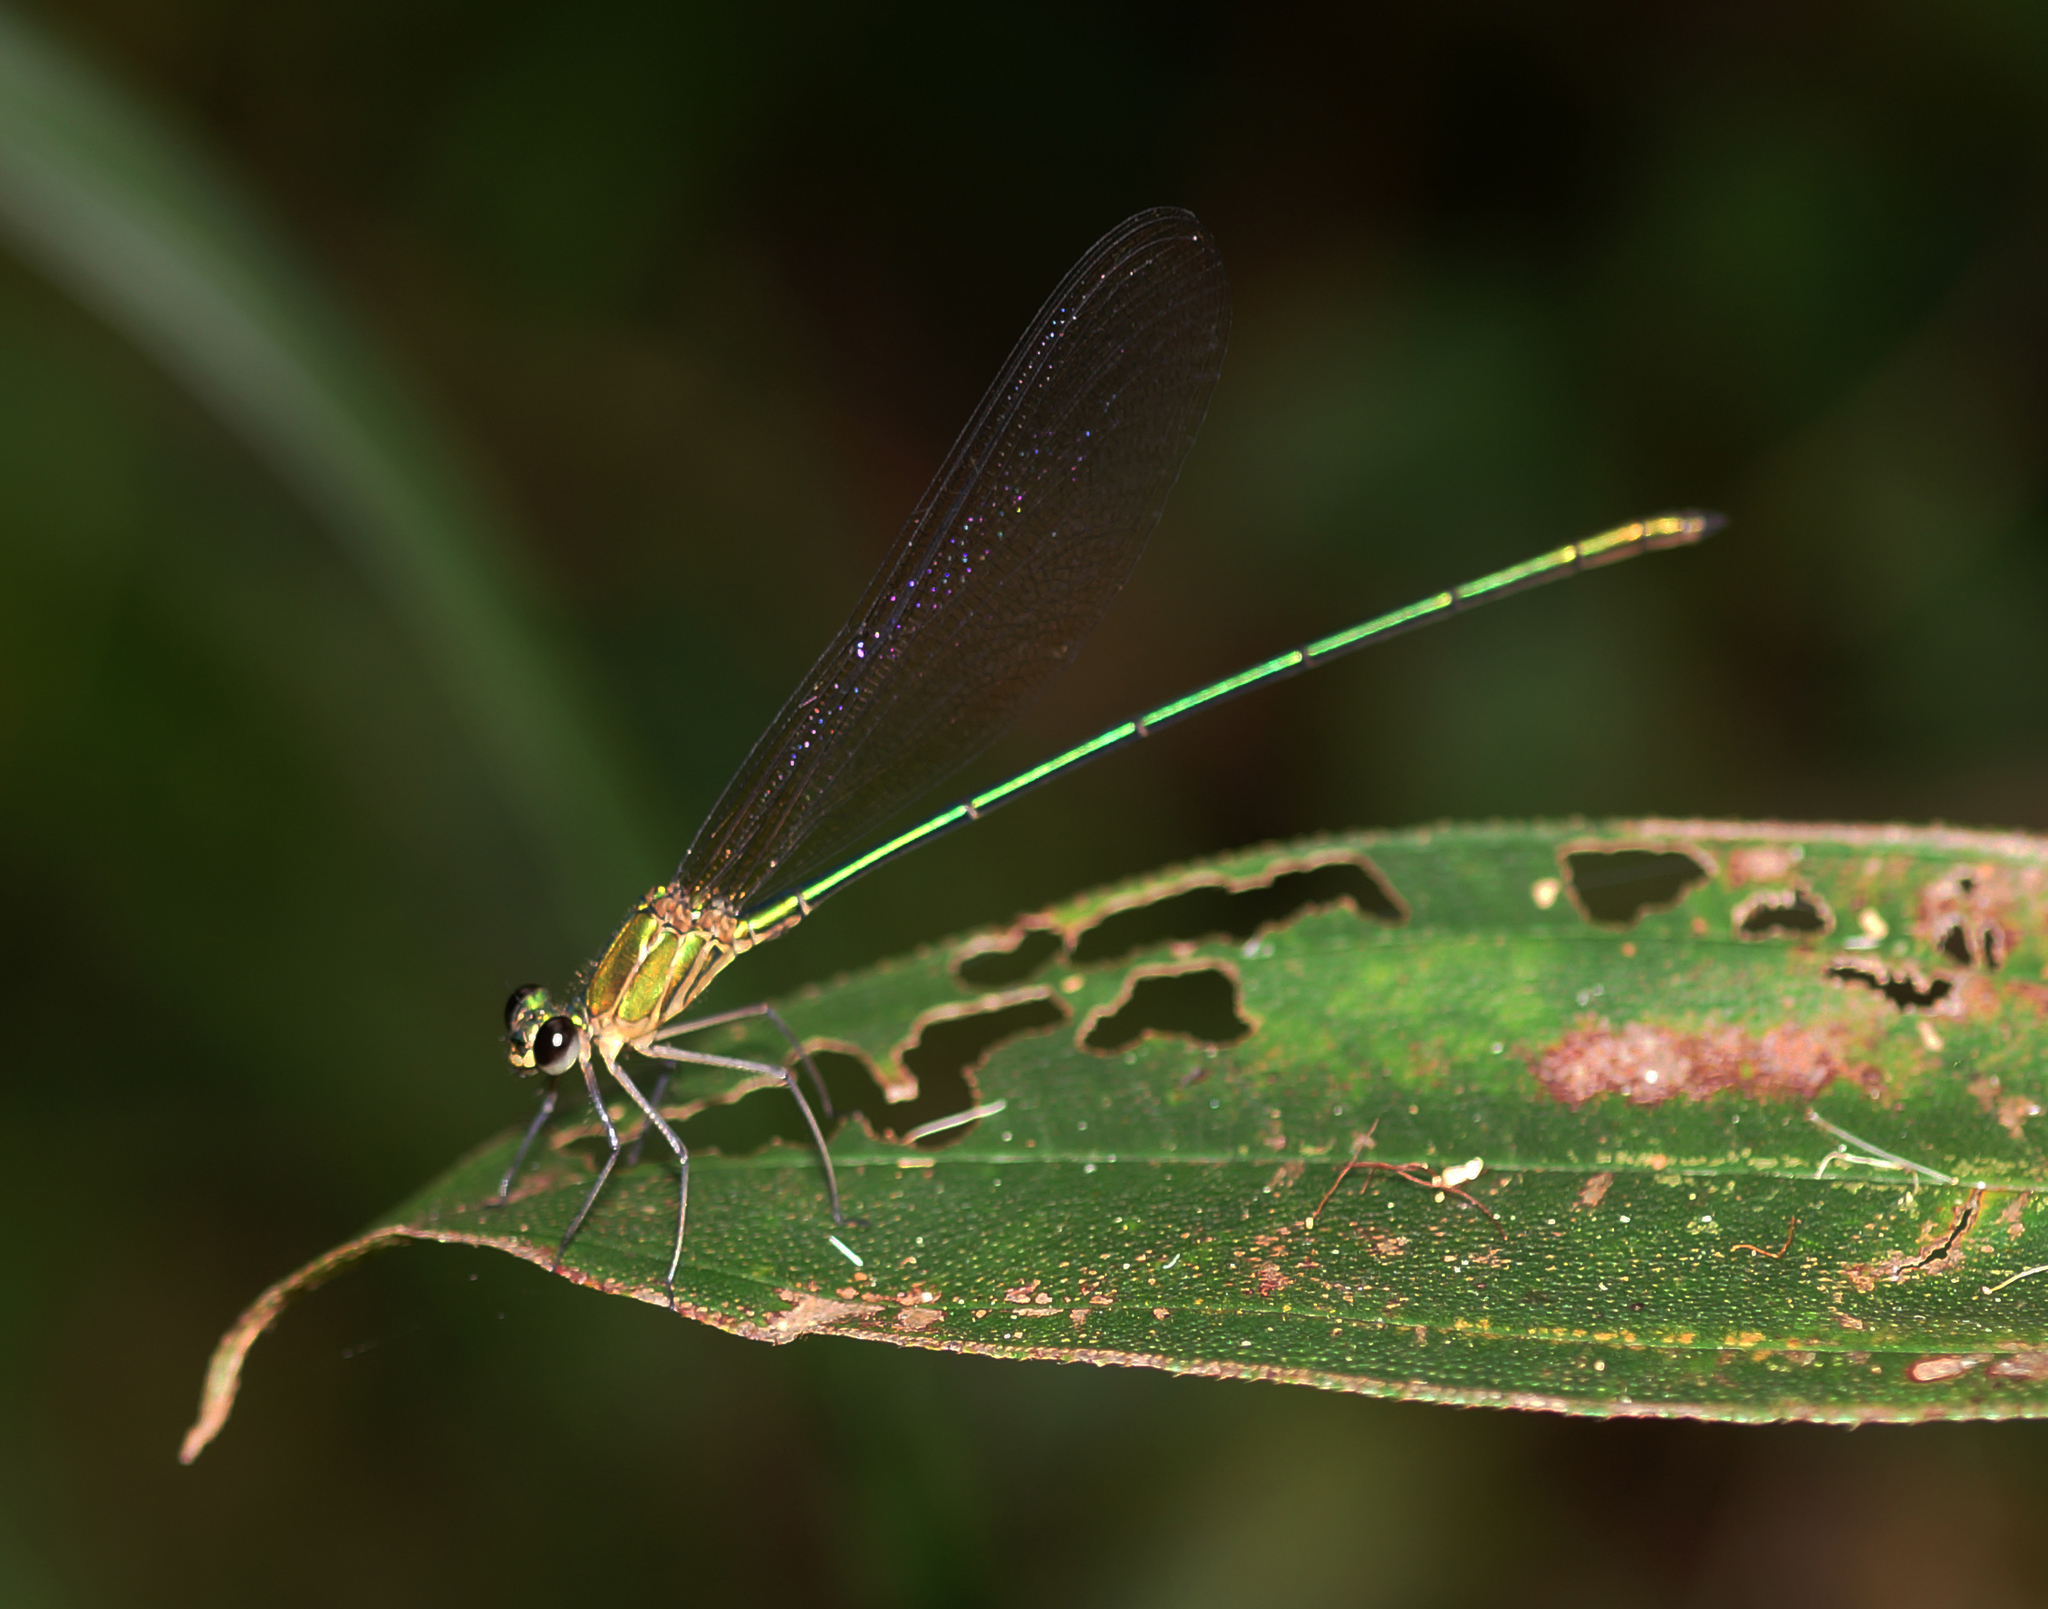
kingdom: Animalia
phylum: Arthropoda
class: Insecta
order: Odonata
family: Calopterygidae
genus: Vestalis
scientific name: Vestalis gracilis
